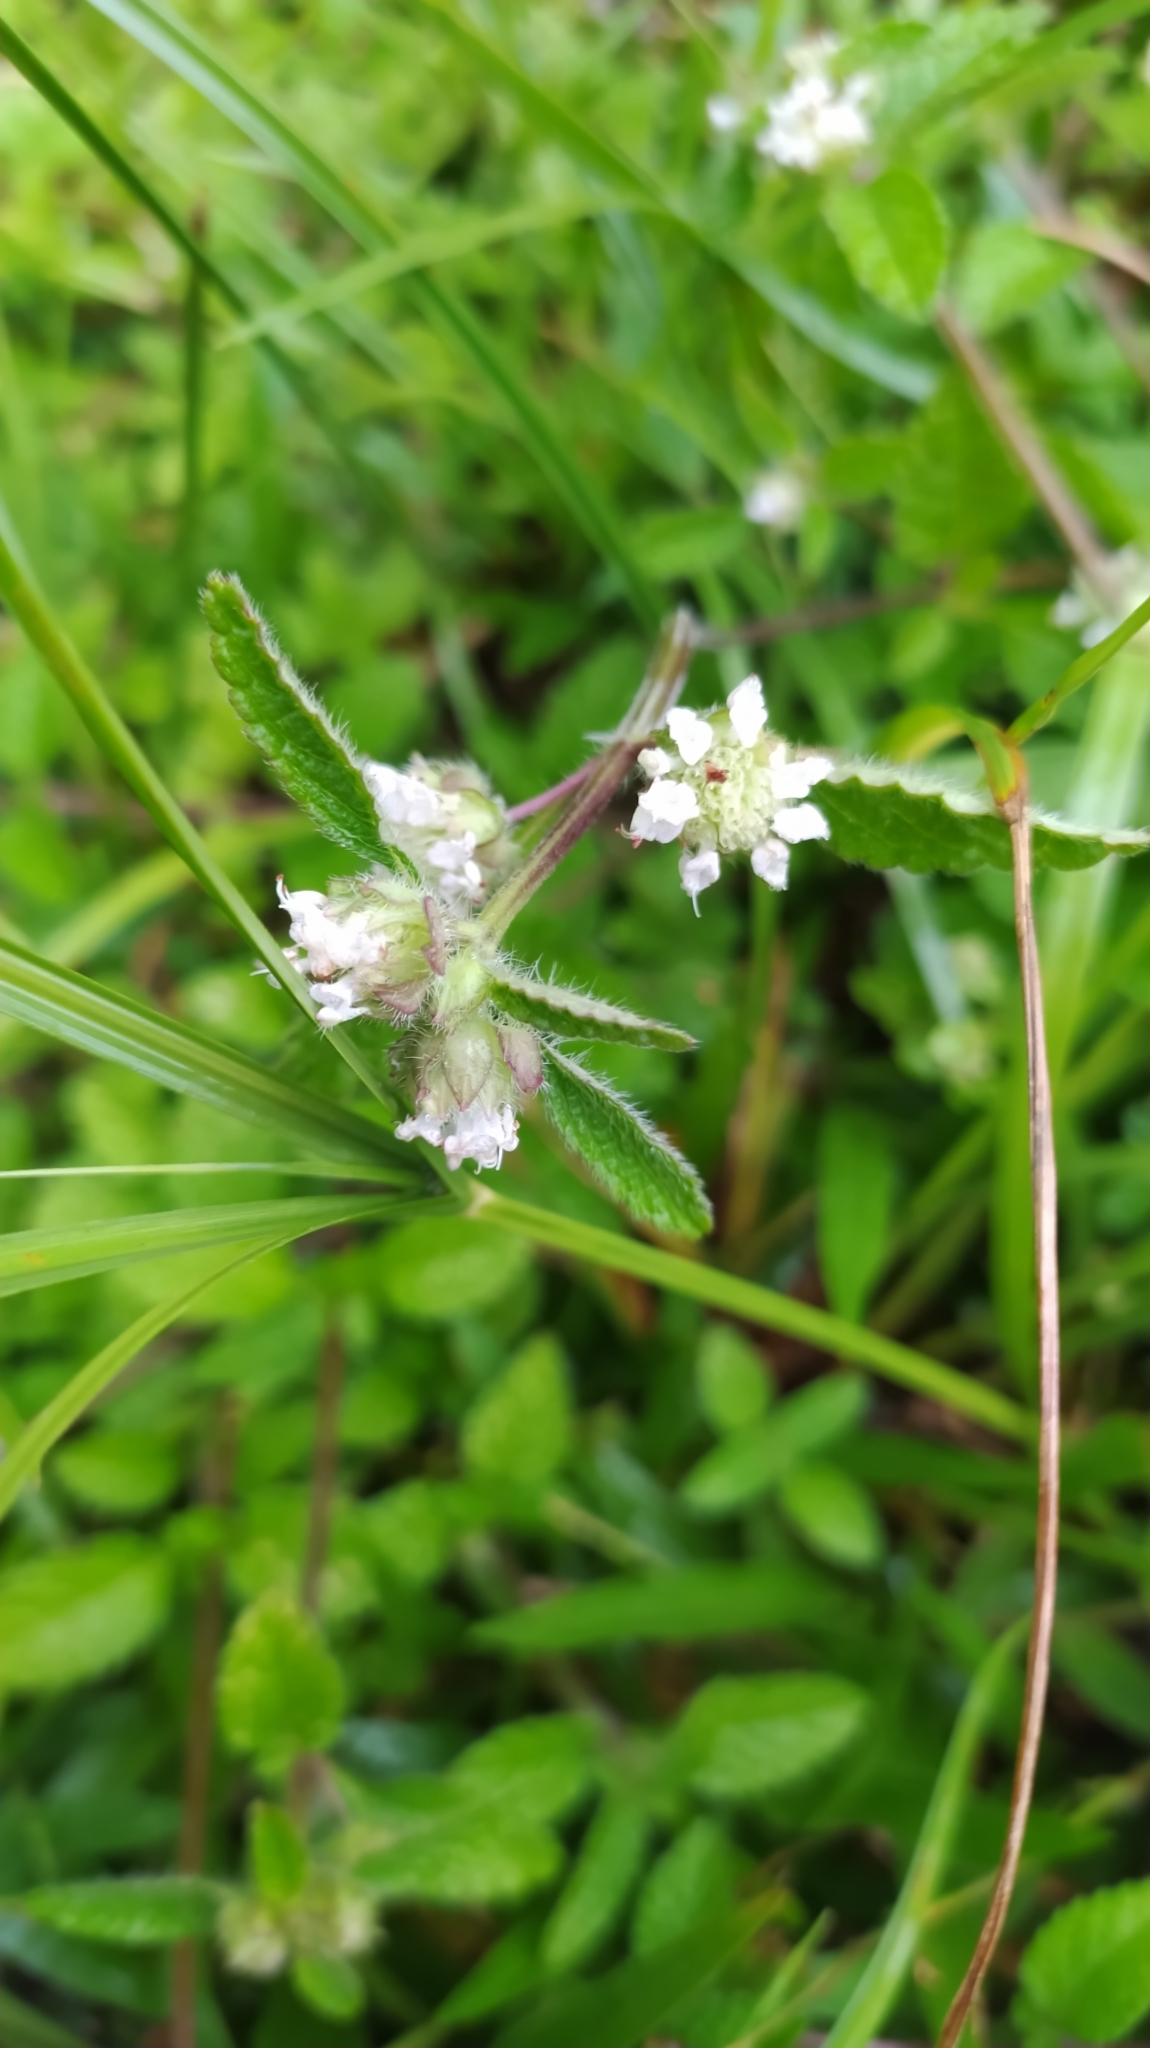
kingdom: Plantae
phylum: Tracheophyta
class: Magnoliopsida
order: Lamiales
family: Lamiaceae
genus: Hyptis
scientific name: Hyptis atrorubens
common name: Lanmant
